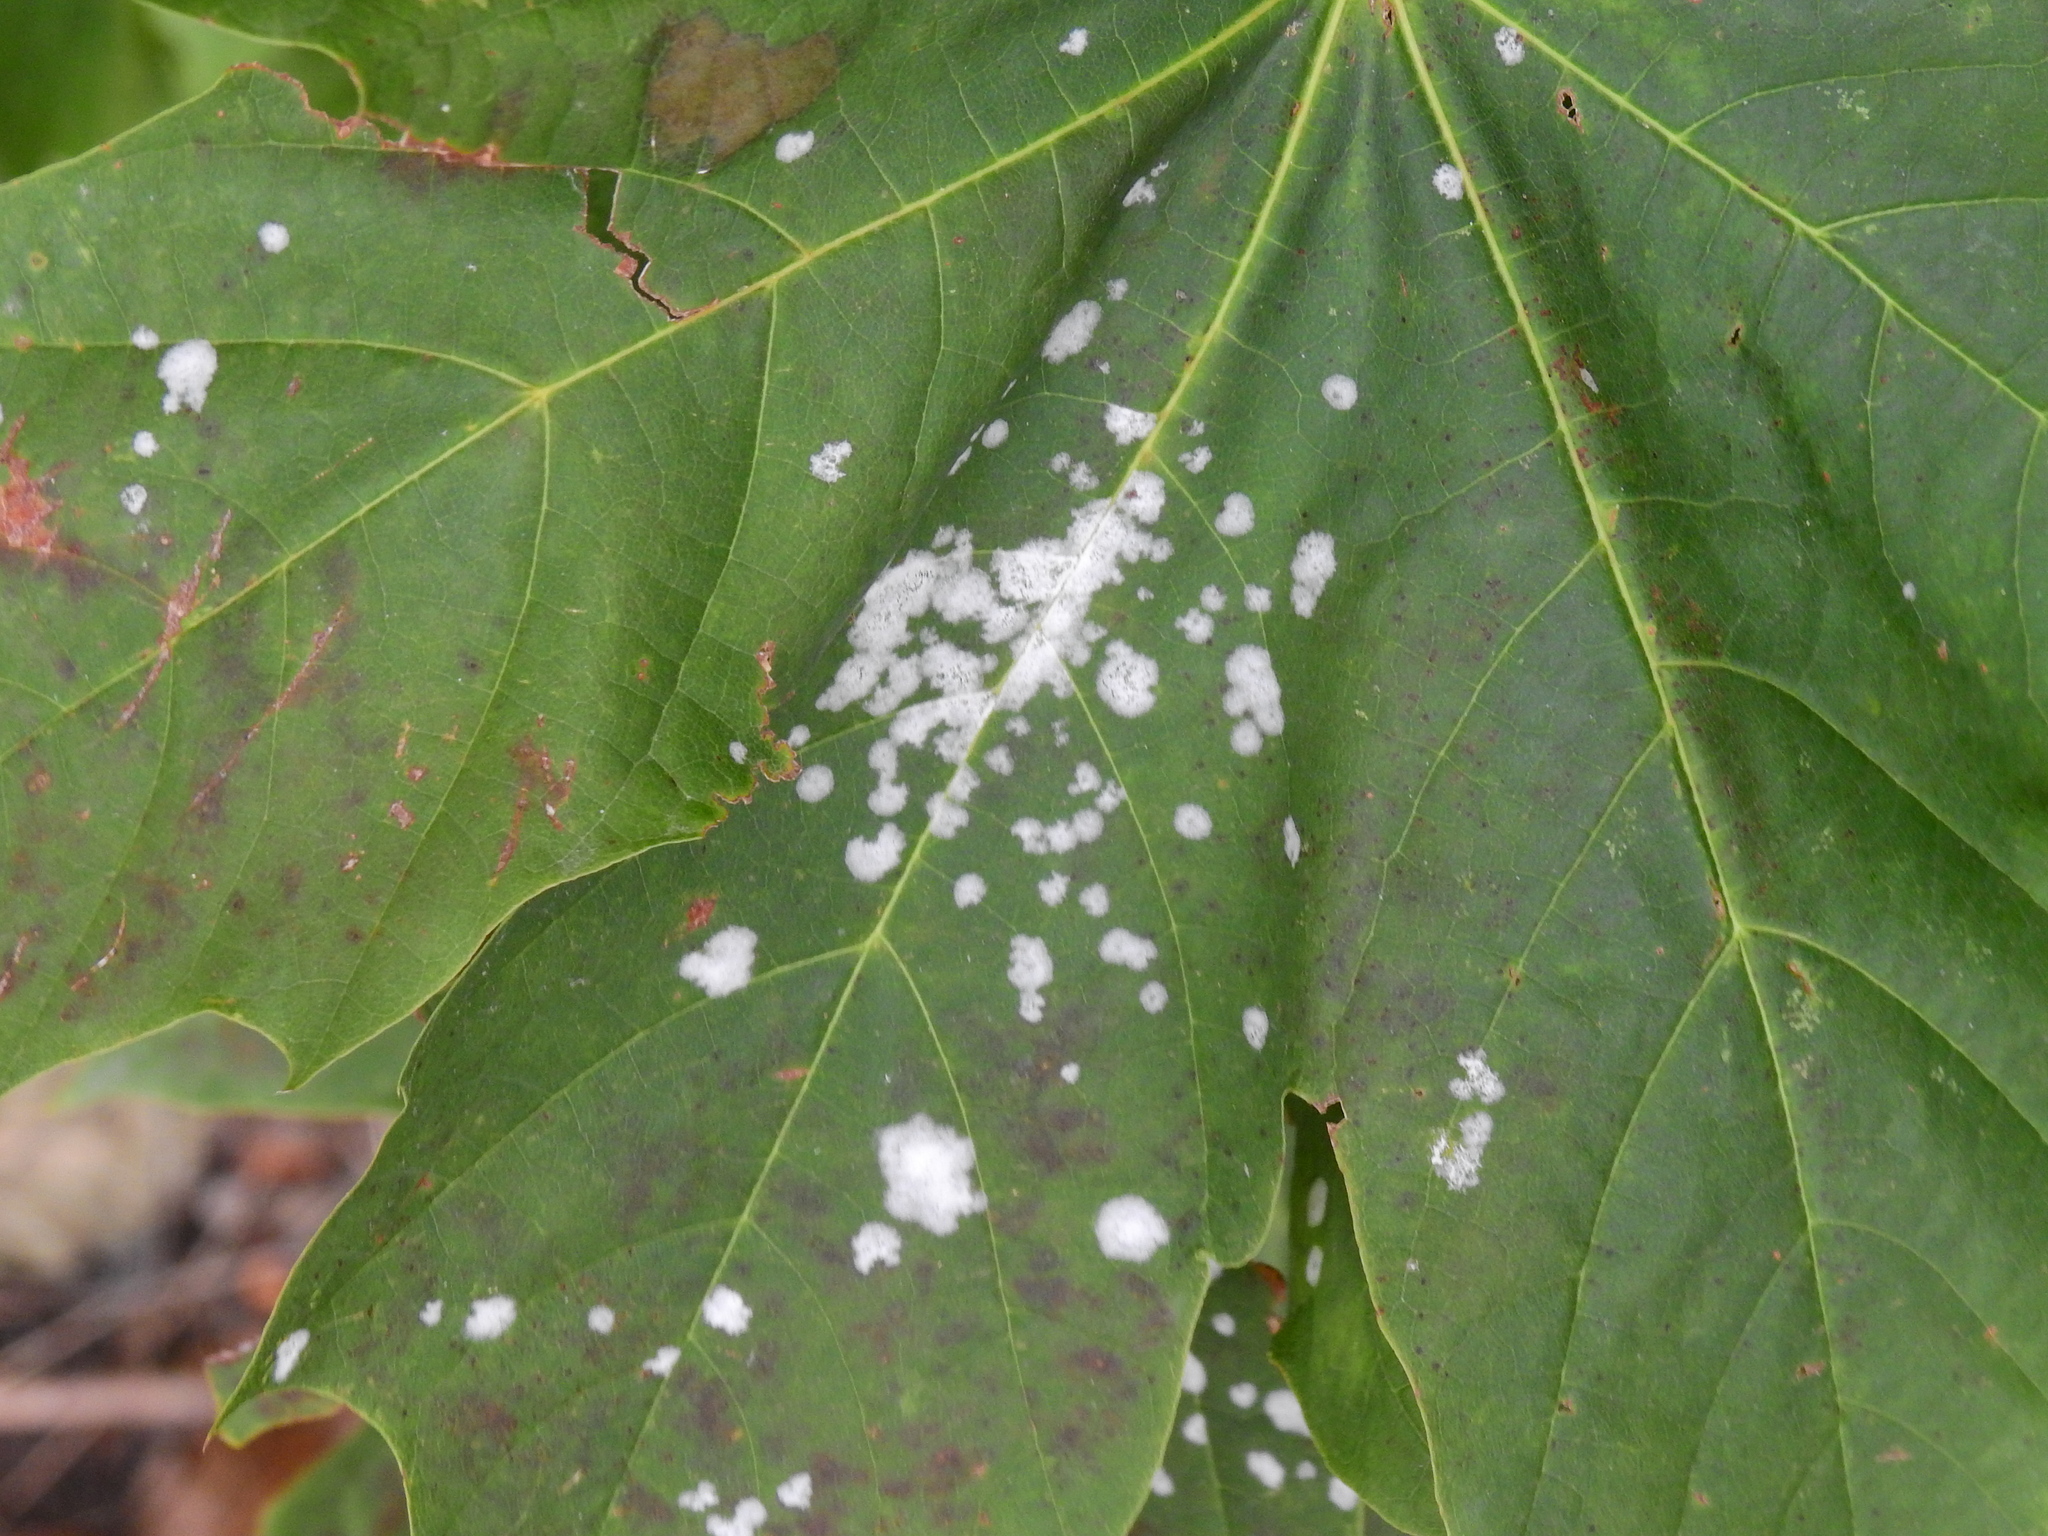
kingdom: Fungi
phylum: Ascomycota
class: Leotiomycetes
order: Helotiales
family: Erysiphaceae
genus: Sawadaea
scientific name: Sawadaea tulasnei
